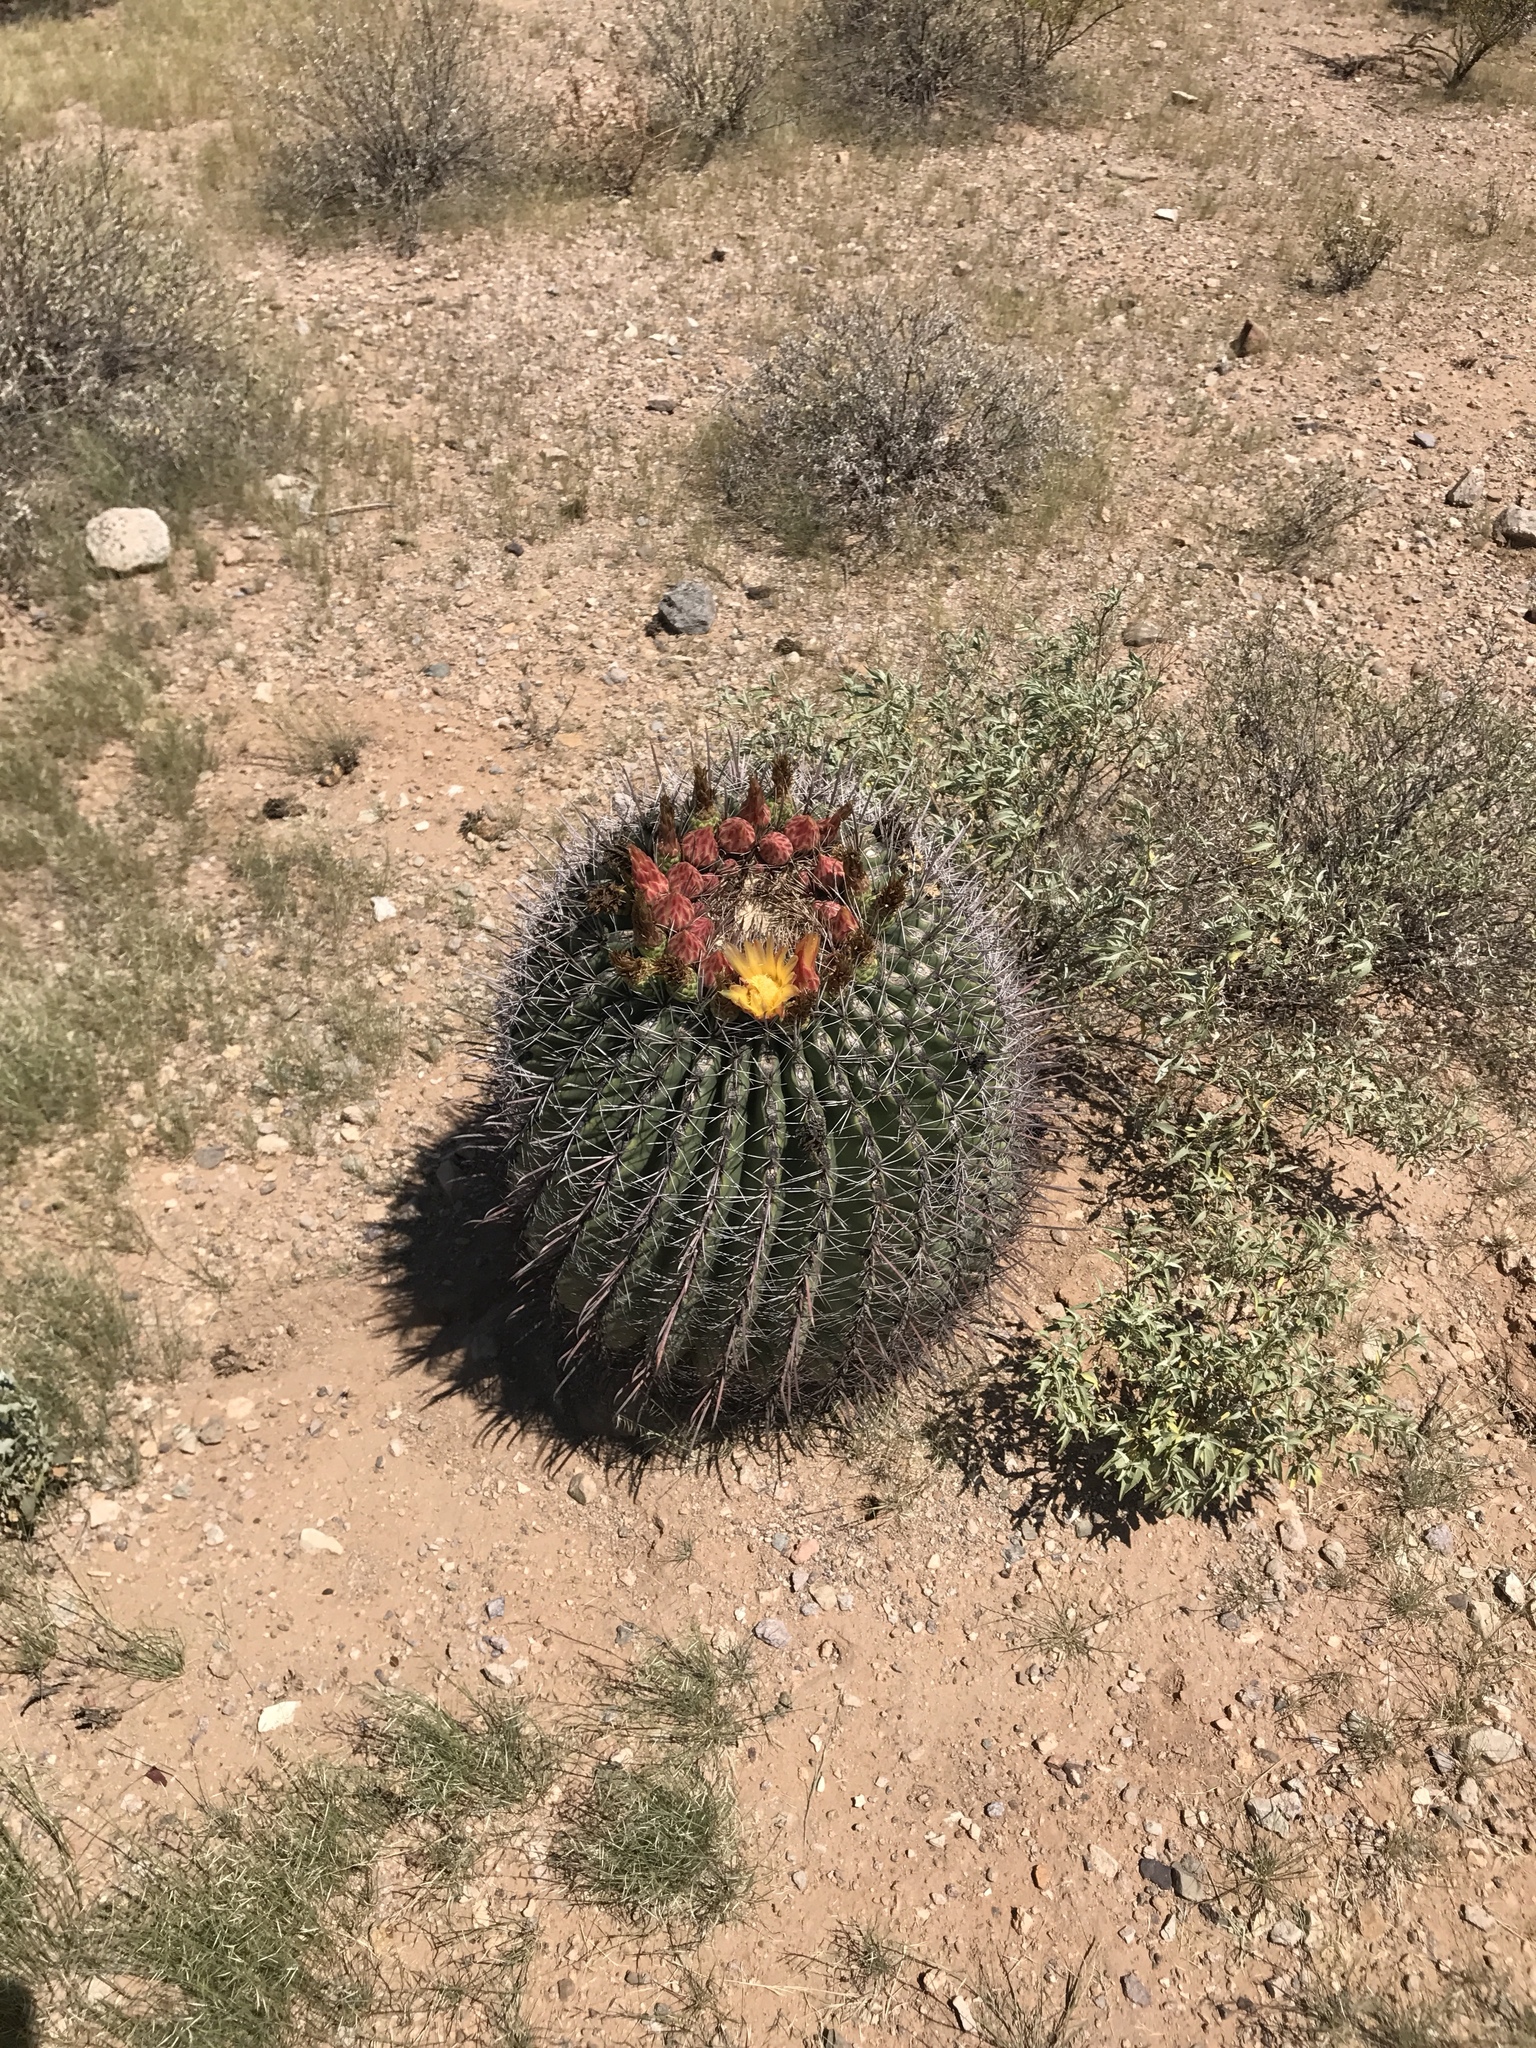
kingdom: Plantae
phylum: Tracheophyta
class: Magnoliopsida
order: Caryophyllales
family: Cactaceae
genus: Ferocactus
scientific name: Ferocactus wislizeni
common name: Candy barrel cactus
